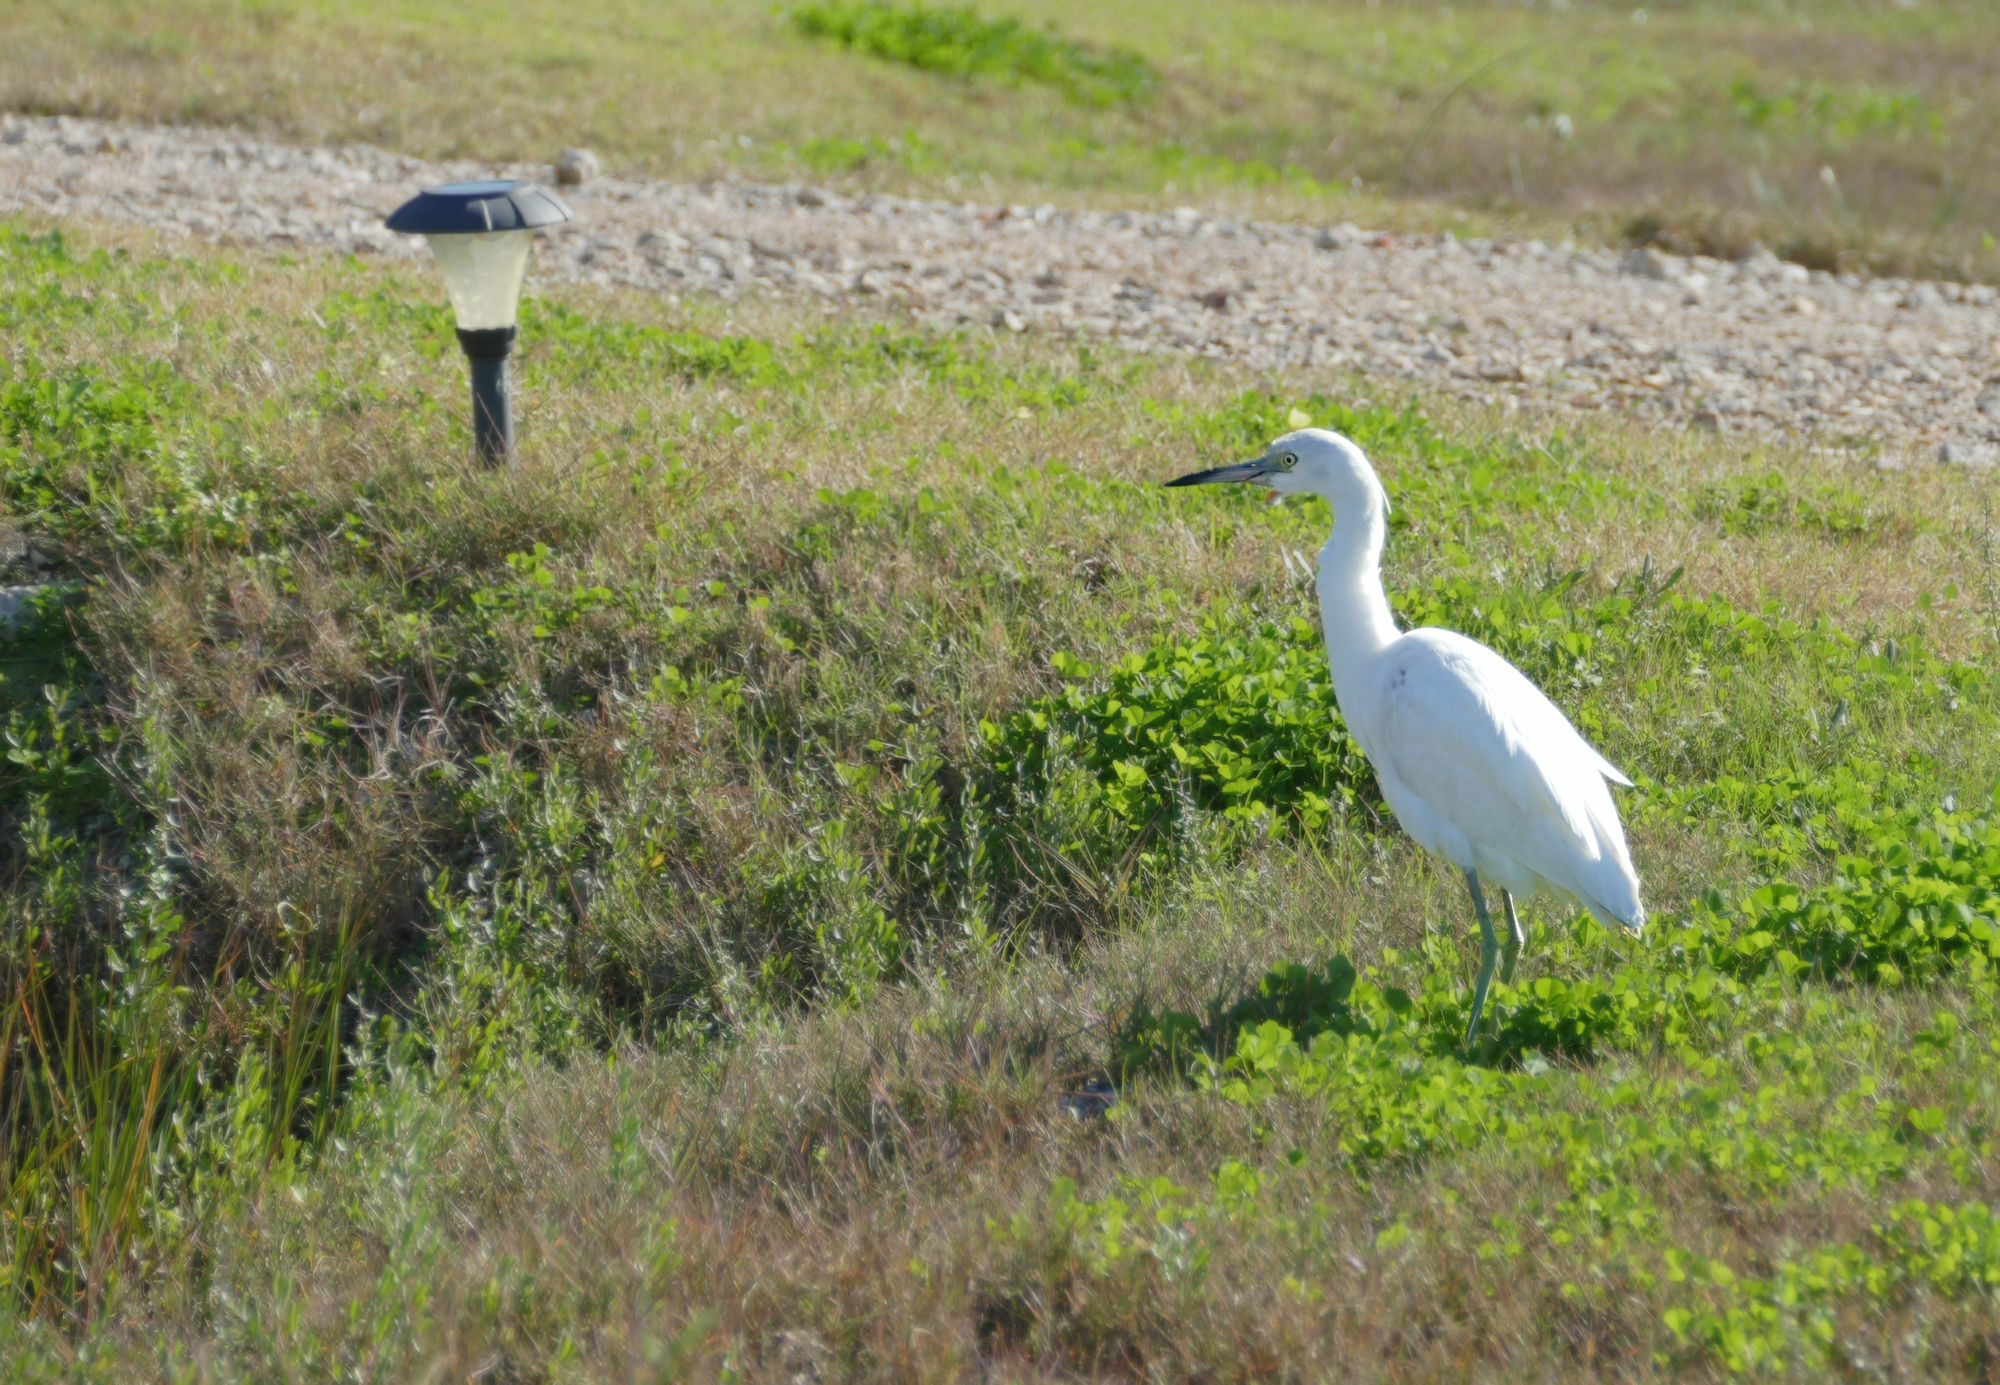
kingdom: Animalia
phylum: Chordata
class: Aves
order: Pelecaniformes
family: Ardeidae
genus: Egretta
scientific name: Egretta caerulea
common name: Little blue heron
